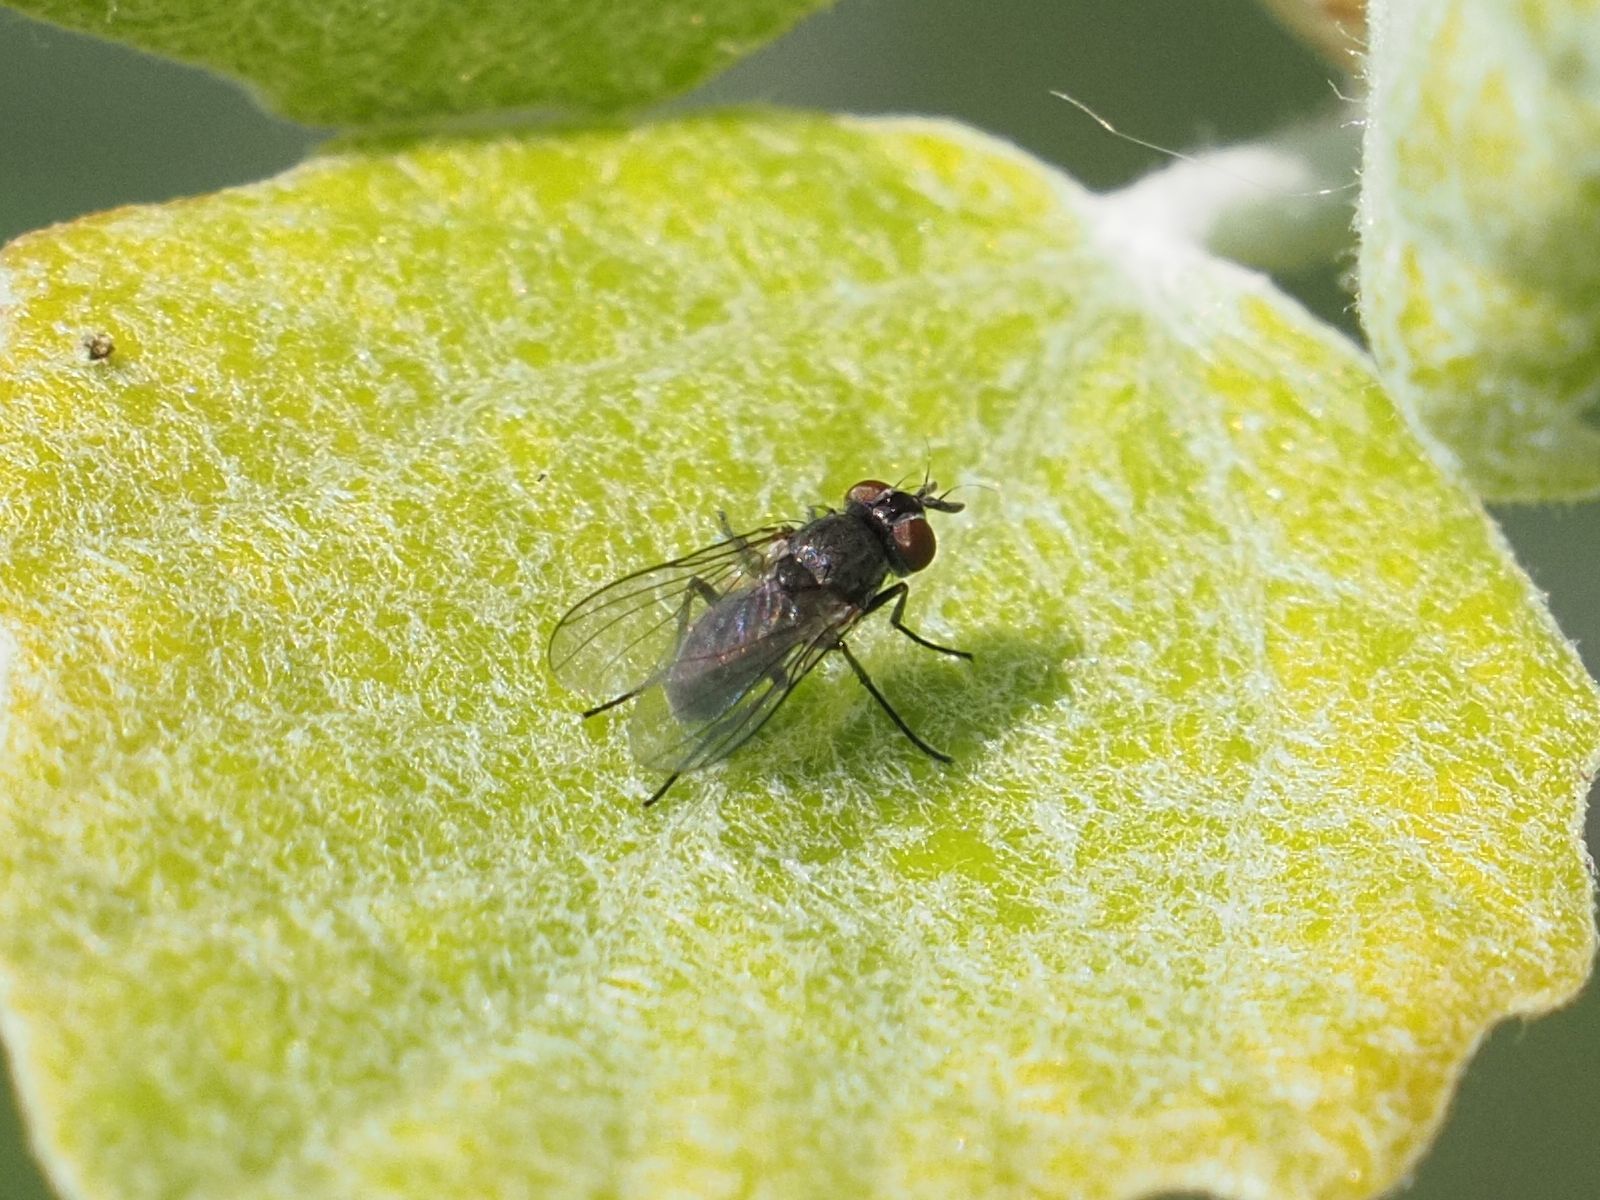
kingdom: Animalia
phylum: Arthropoda
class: Insecta
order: Diptera
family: Muscidae
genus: Coenosia
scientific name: Coenosia agromyzina
